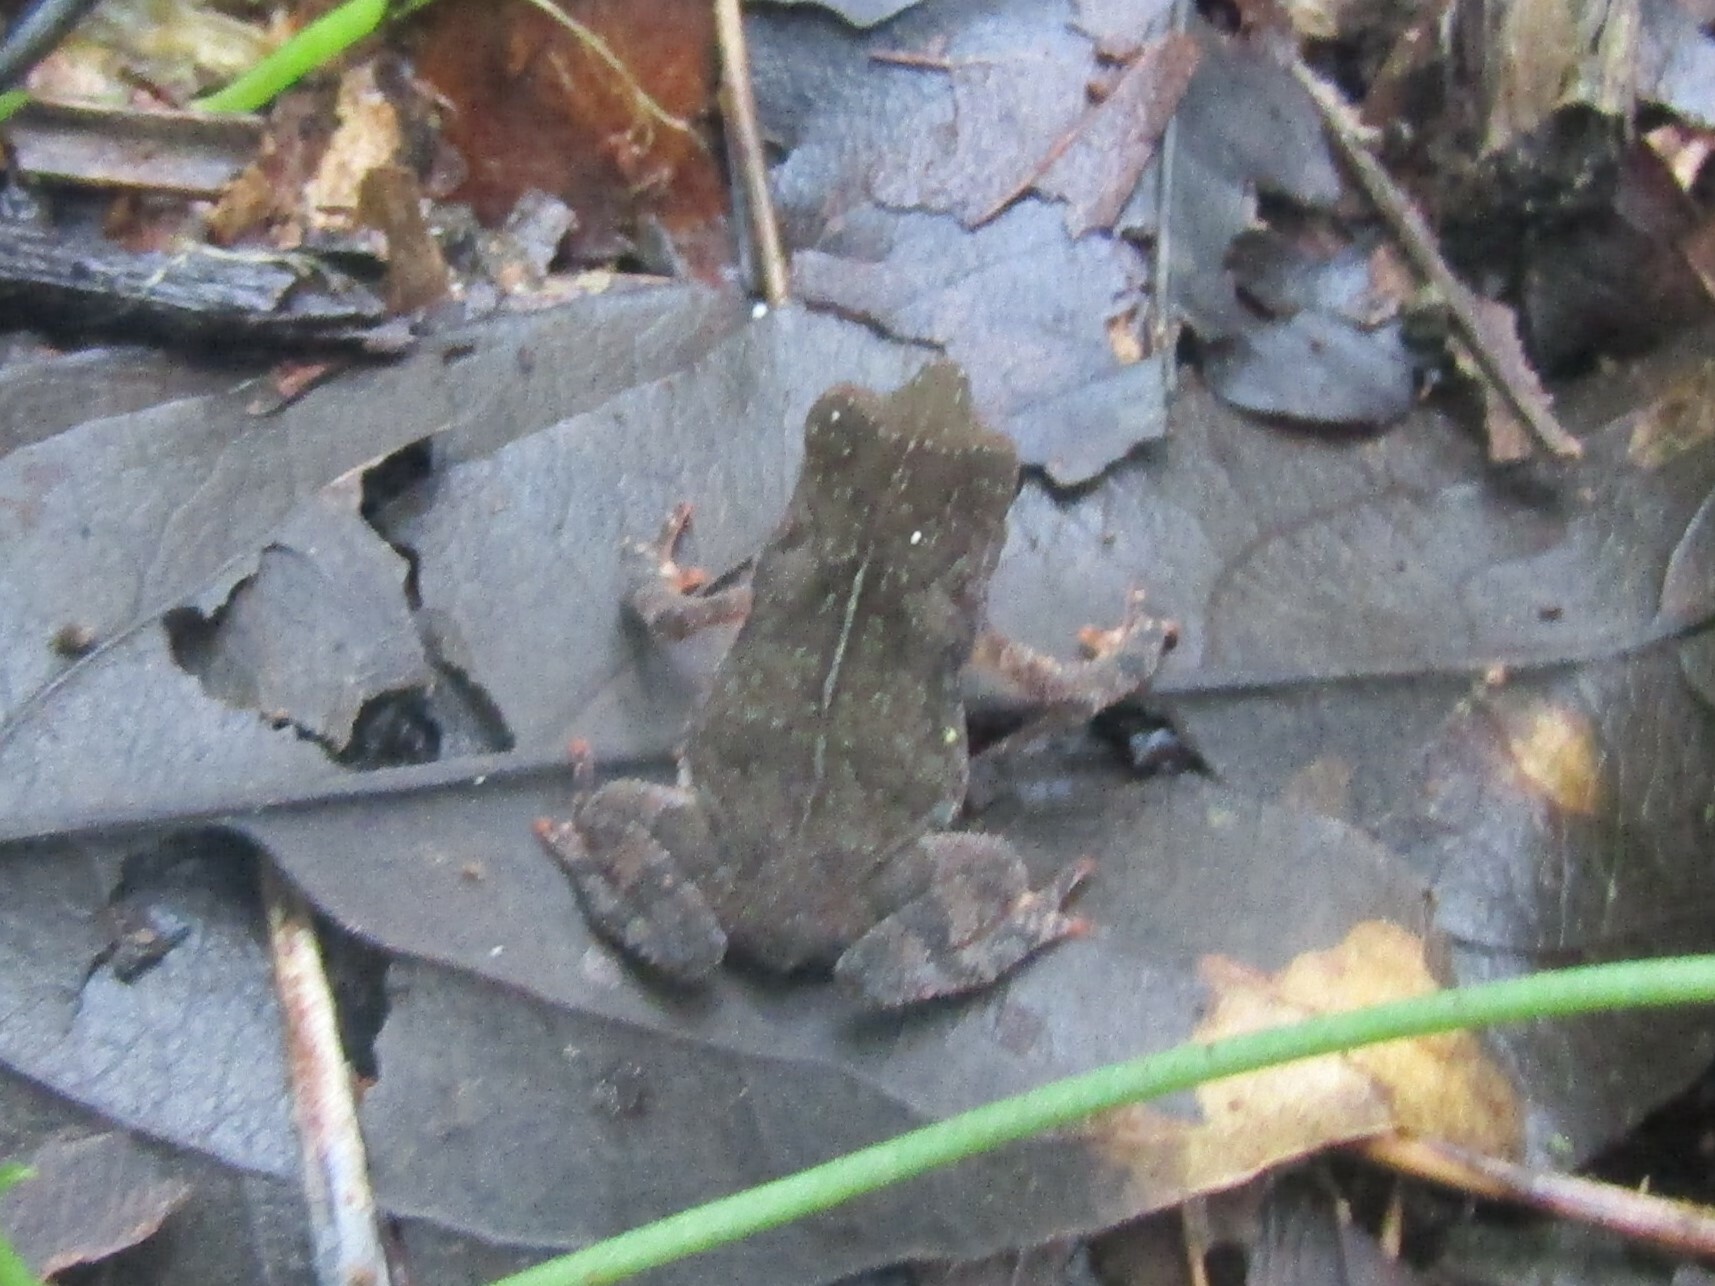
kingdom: Animalia
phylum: Chordata
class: Amphibia
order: Anura
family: Bufonidae
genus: Rhinella
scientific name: Rhinella alata
